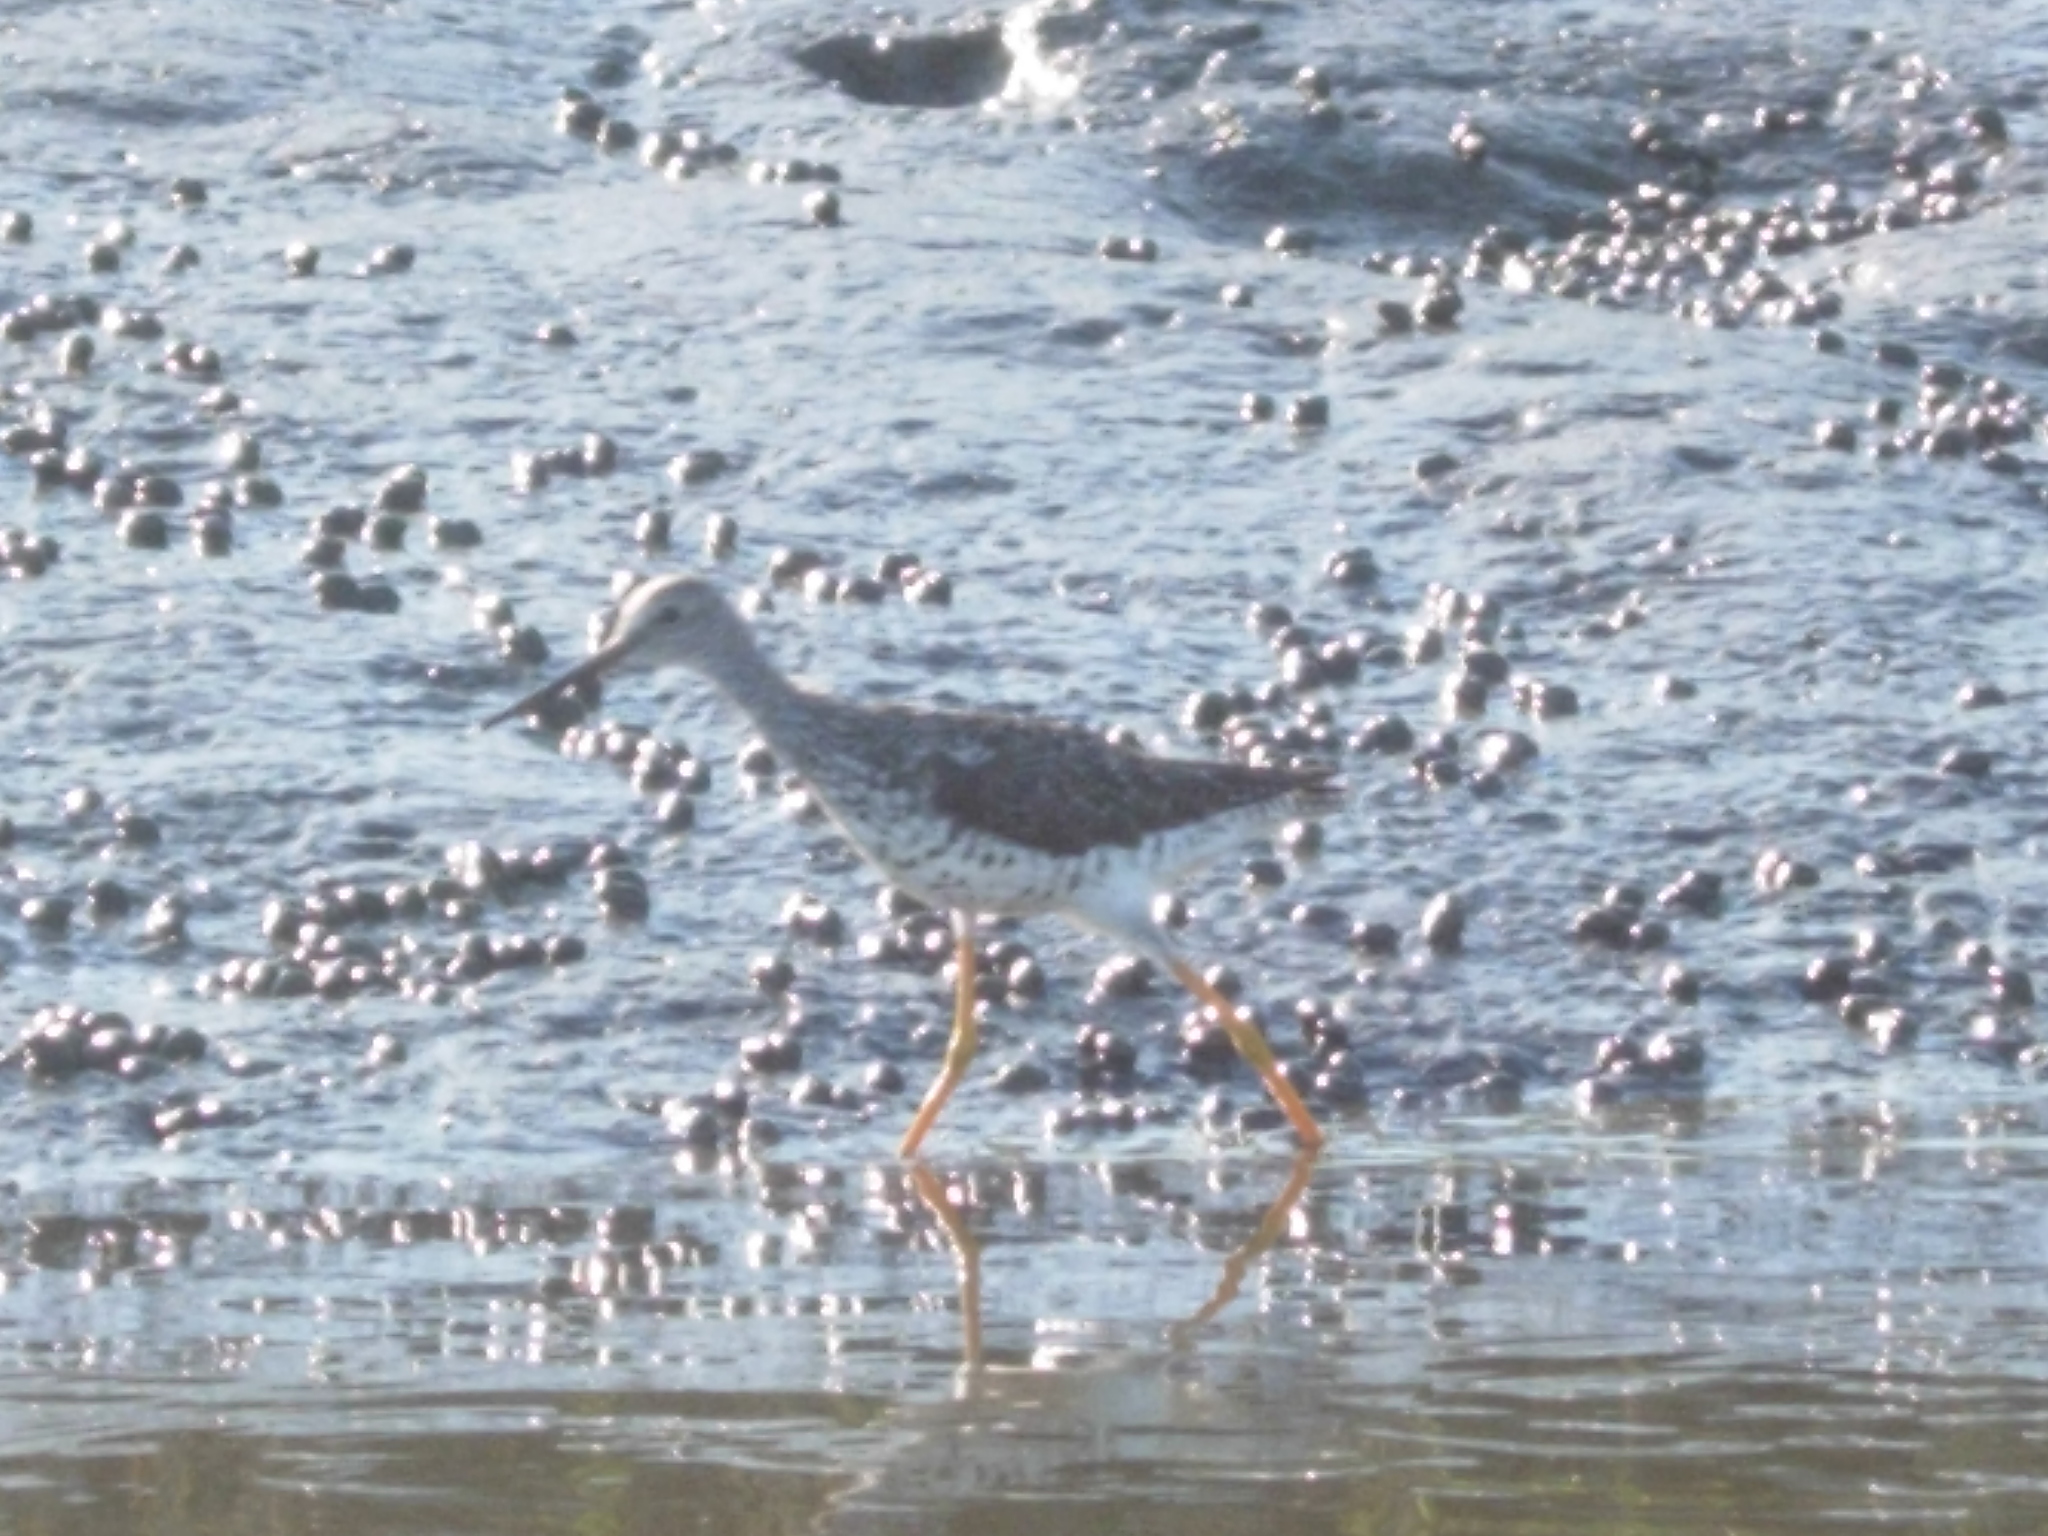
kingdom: Animalia
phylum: Chordata
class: Aves
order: Charadriiformes
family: Scolopacidae
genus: Tringa
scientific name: Tringa melanoleuca
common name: Greater yellowlegs
